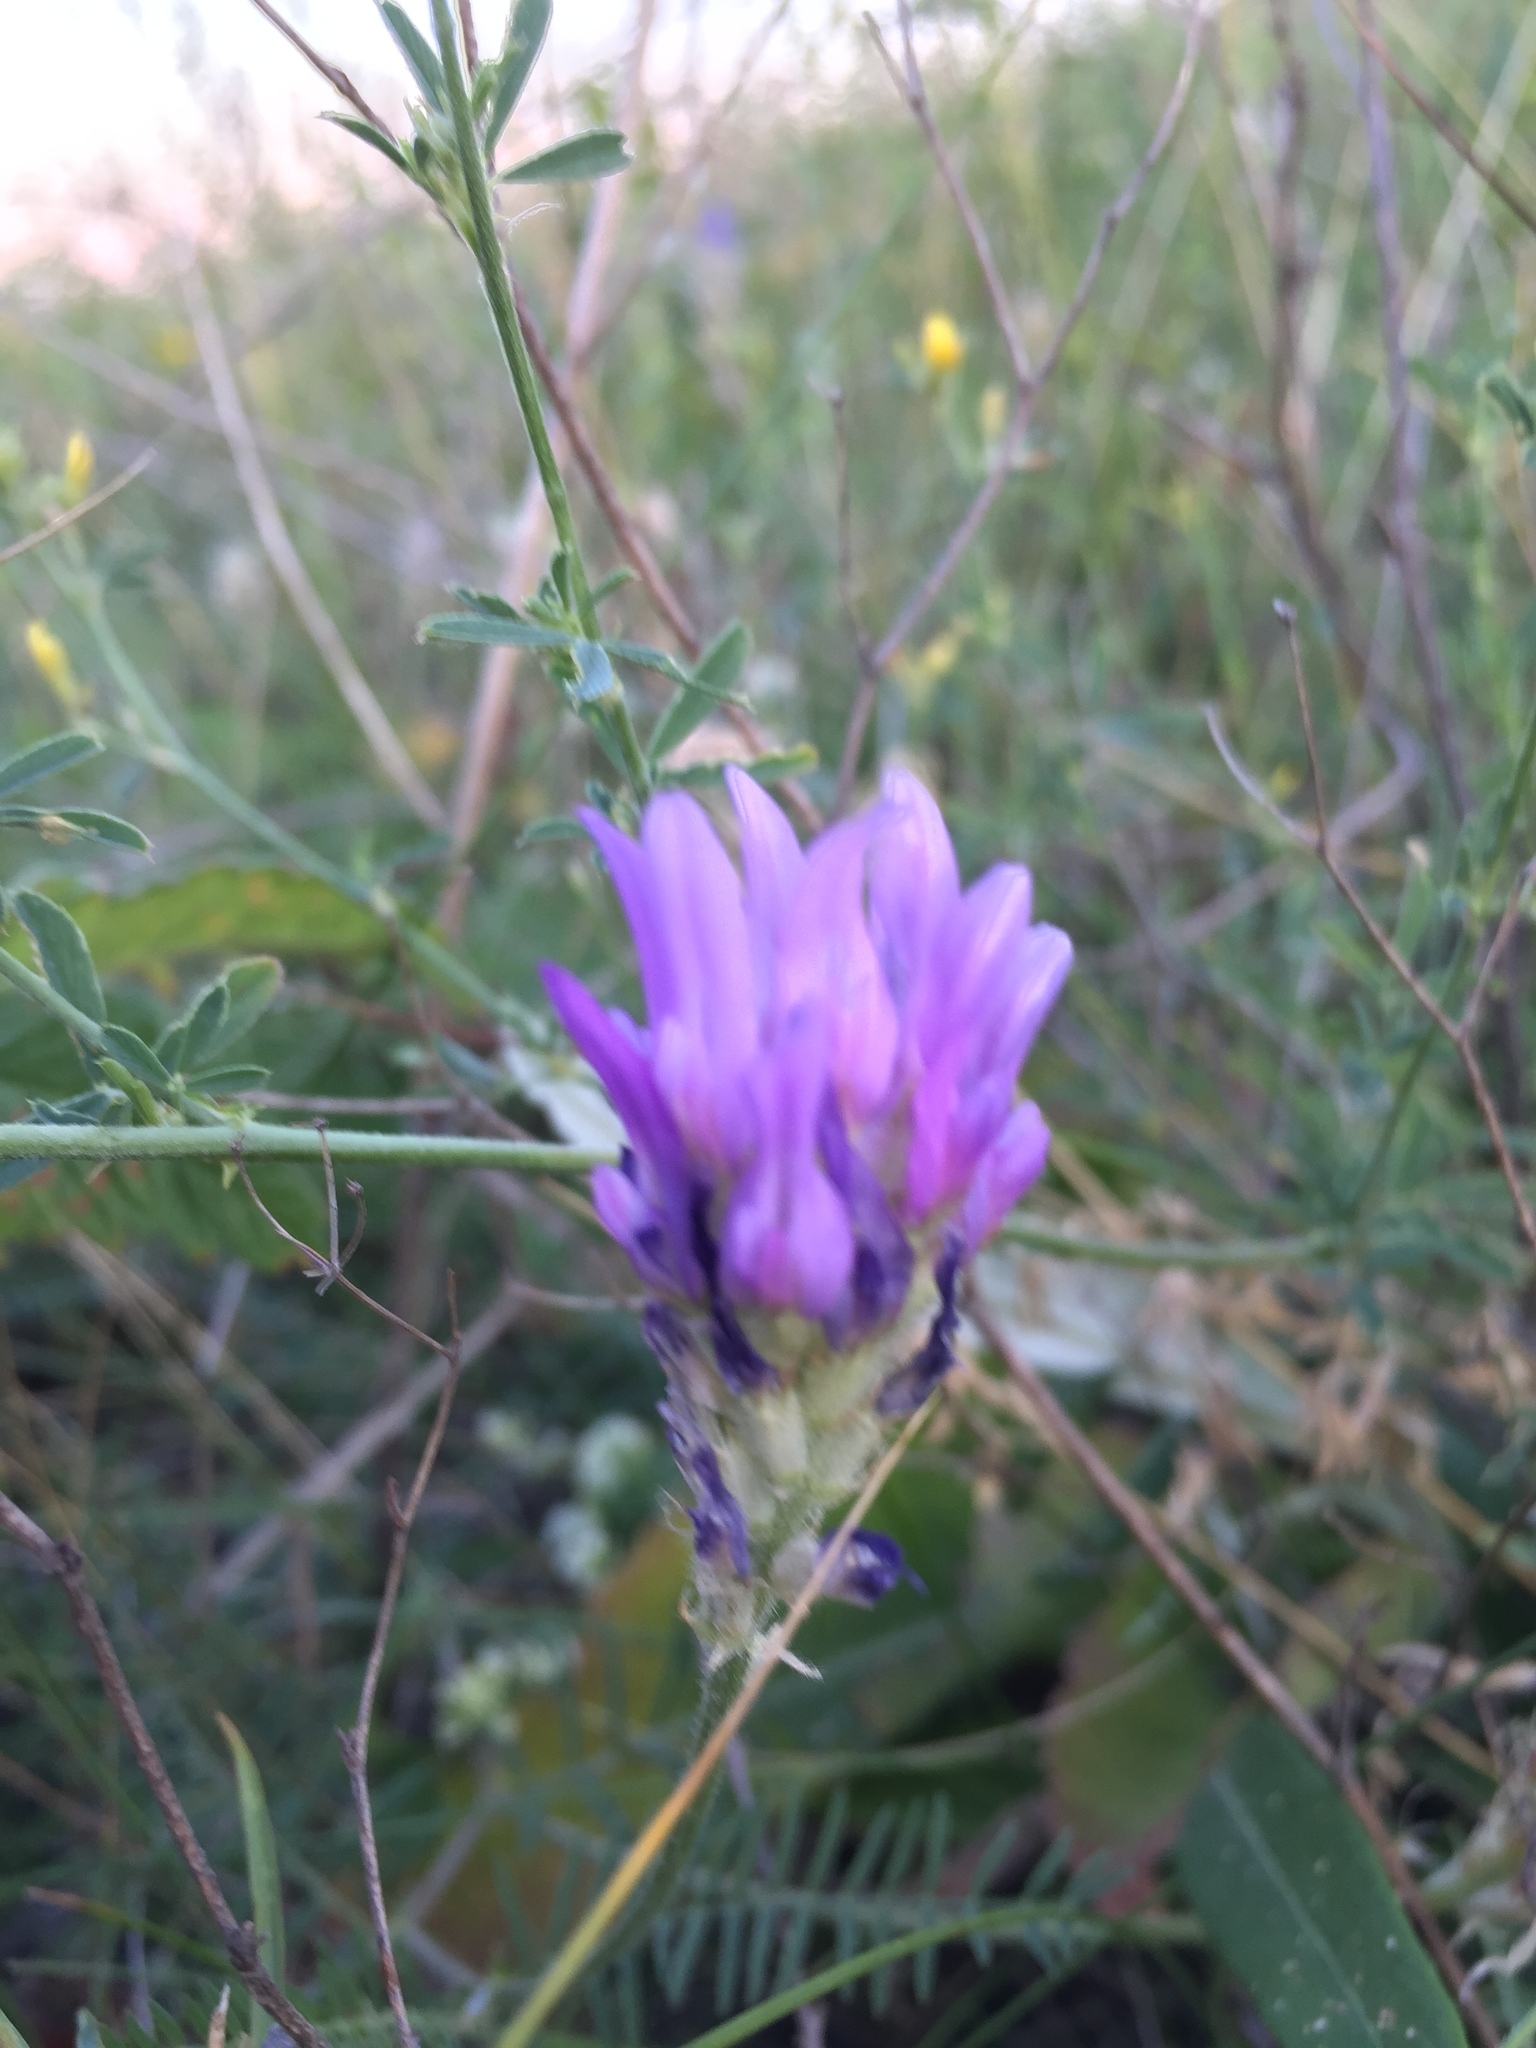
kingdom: Plantae
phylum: Tracheophyta
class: Magnoliopsida
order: Fabales
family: Fabaceae
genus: Astragalus
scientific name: Astragalus onobrychis
